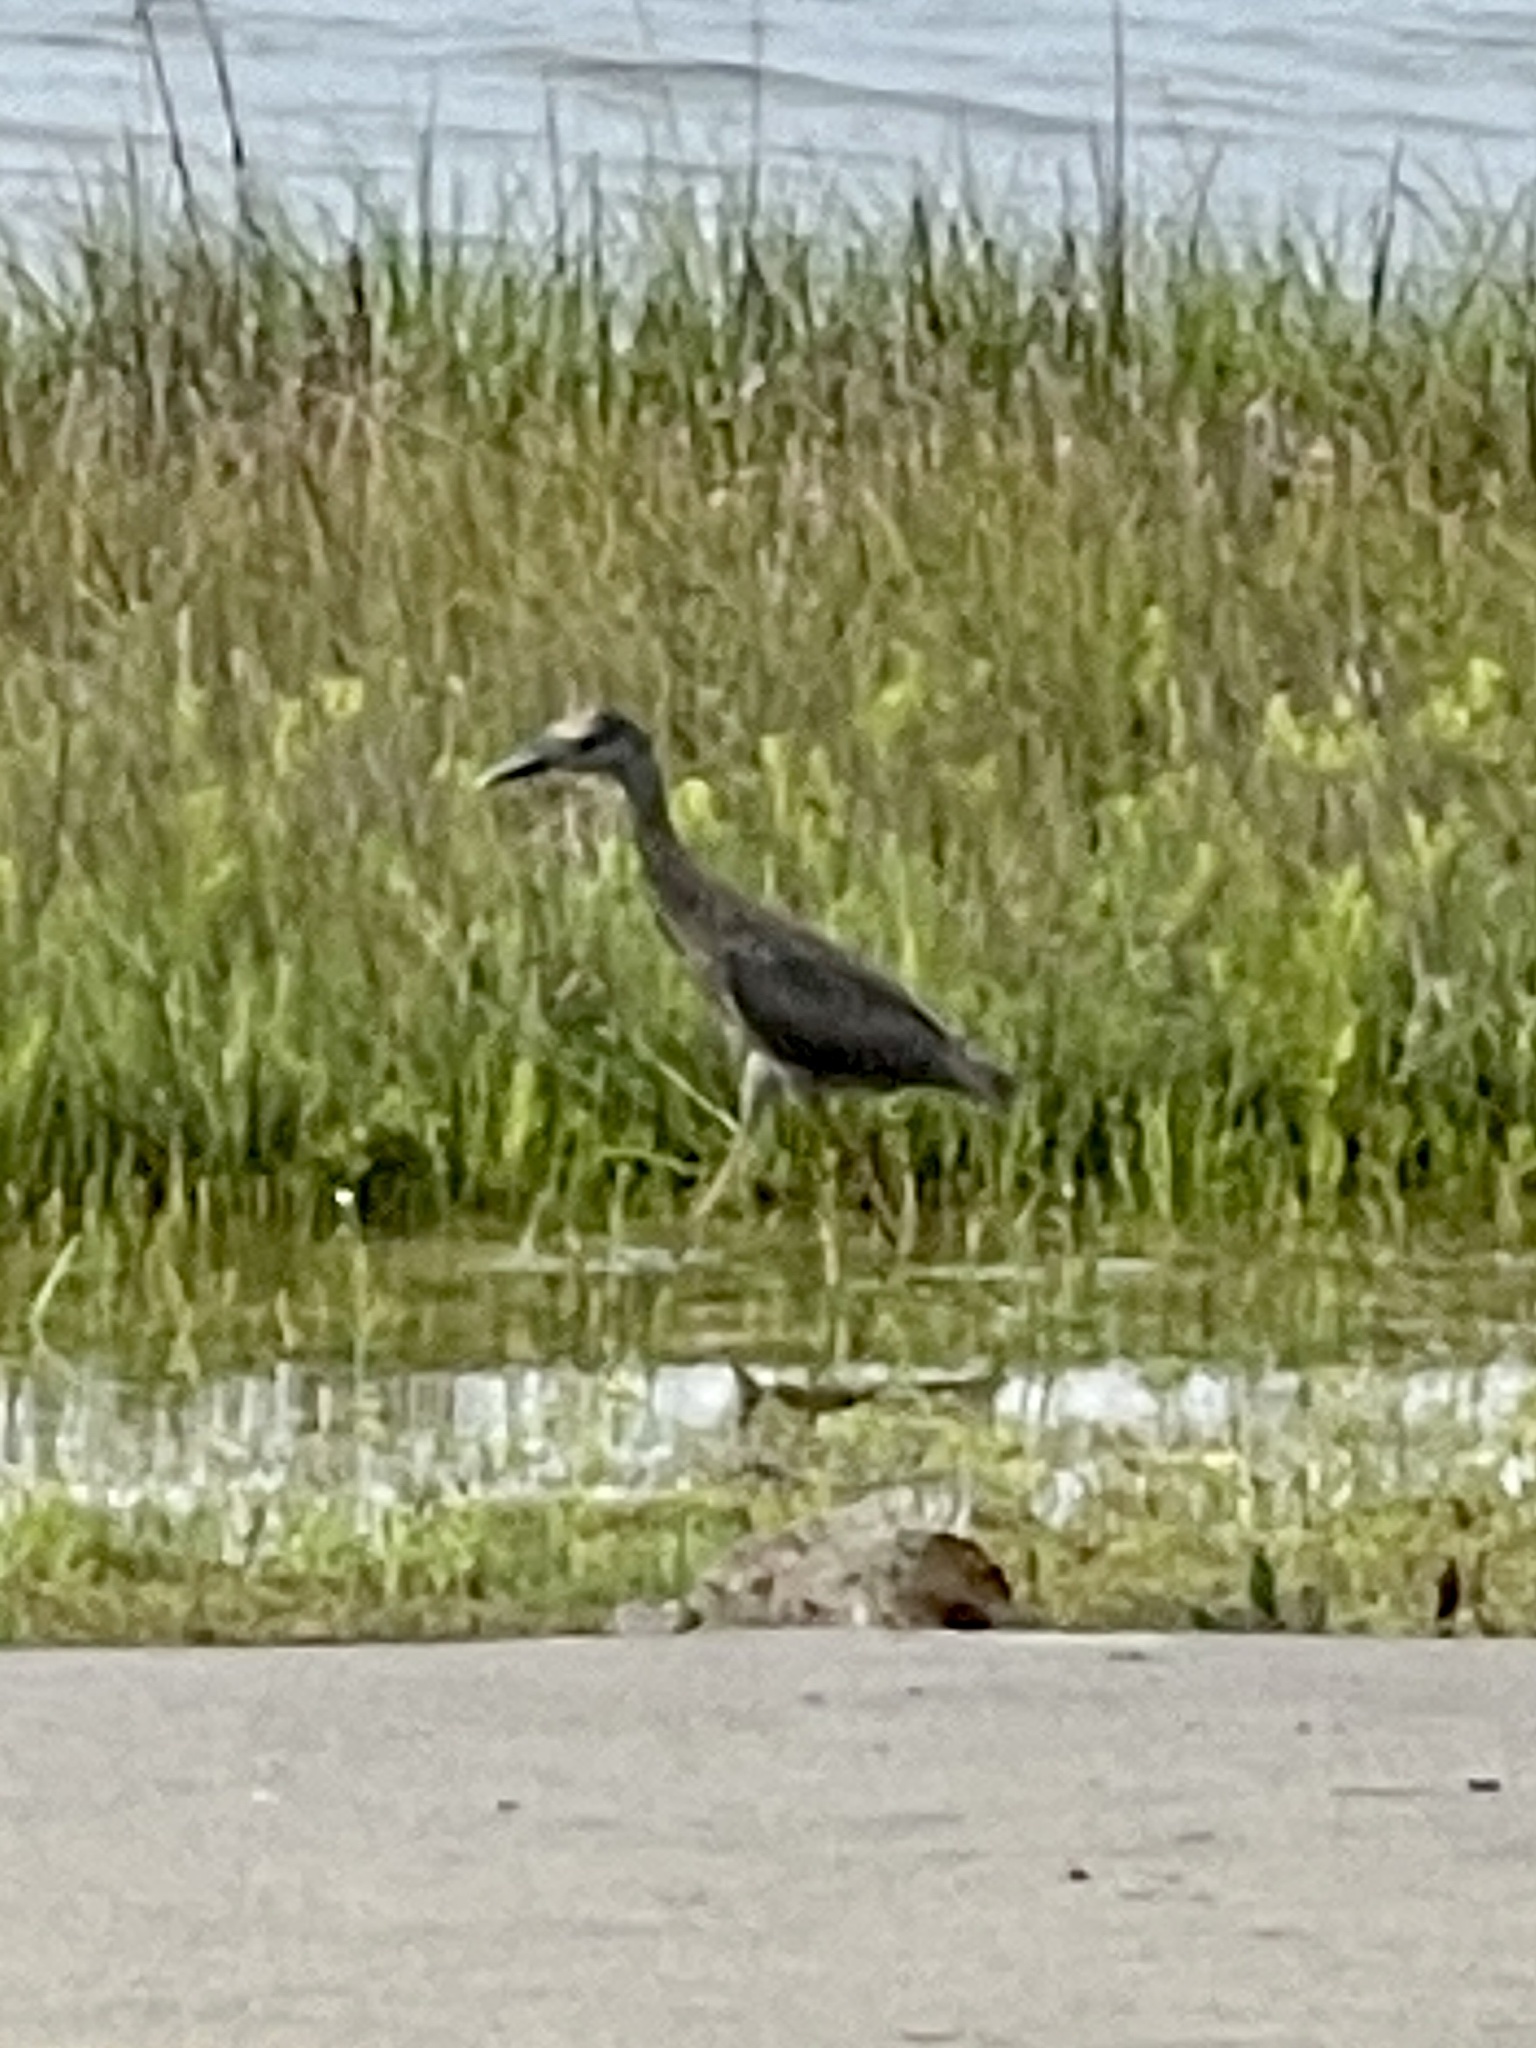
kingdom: Animalia
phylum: Chordata
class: Aves
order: Pelecaniformes
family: Ardeidae
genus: Nyctanassa
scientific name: Nyctanassa violacea
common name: Yellow-crowned night heron
